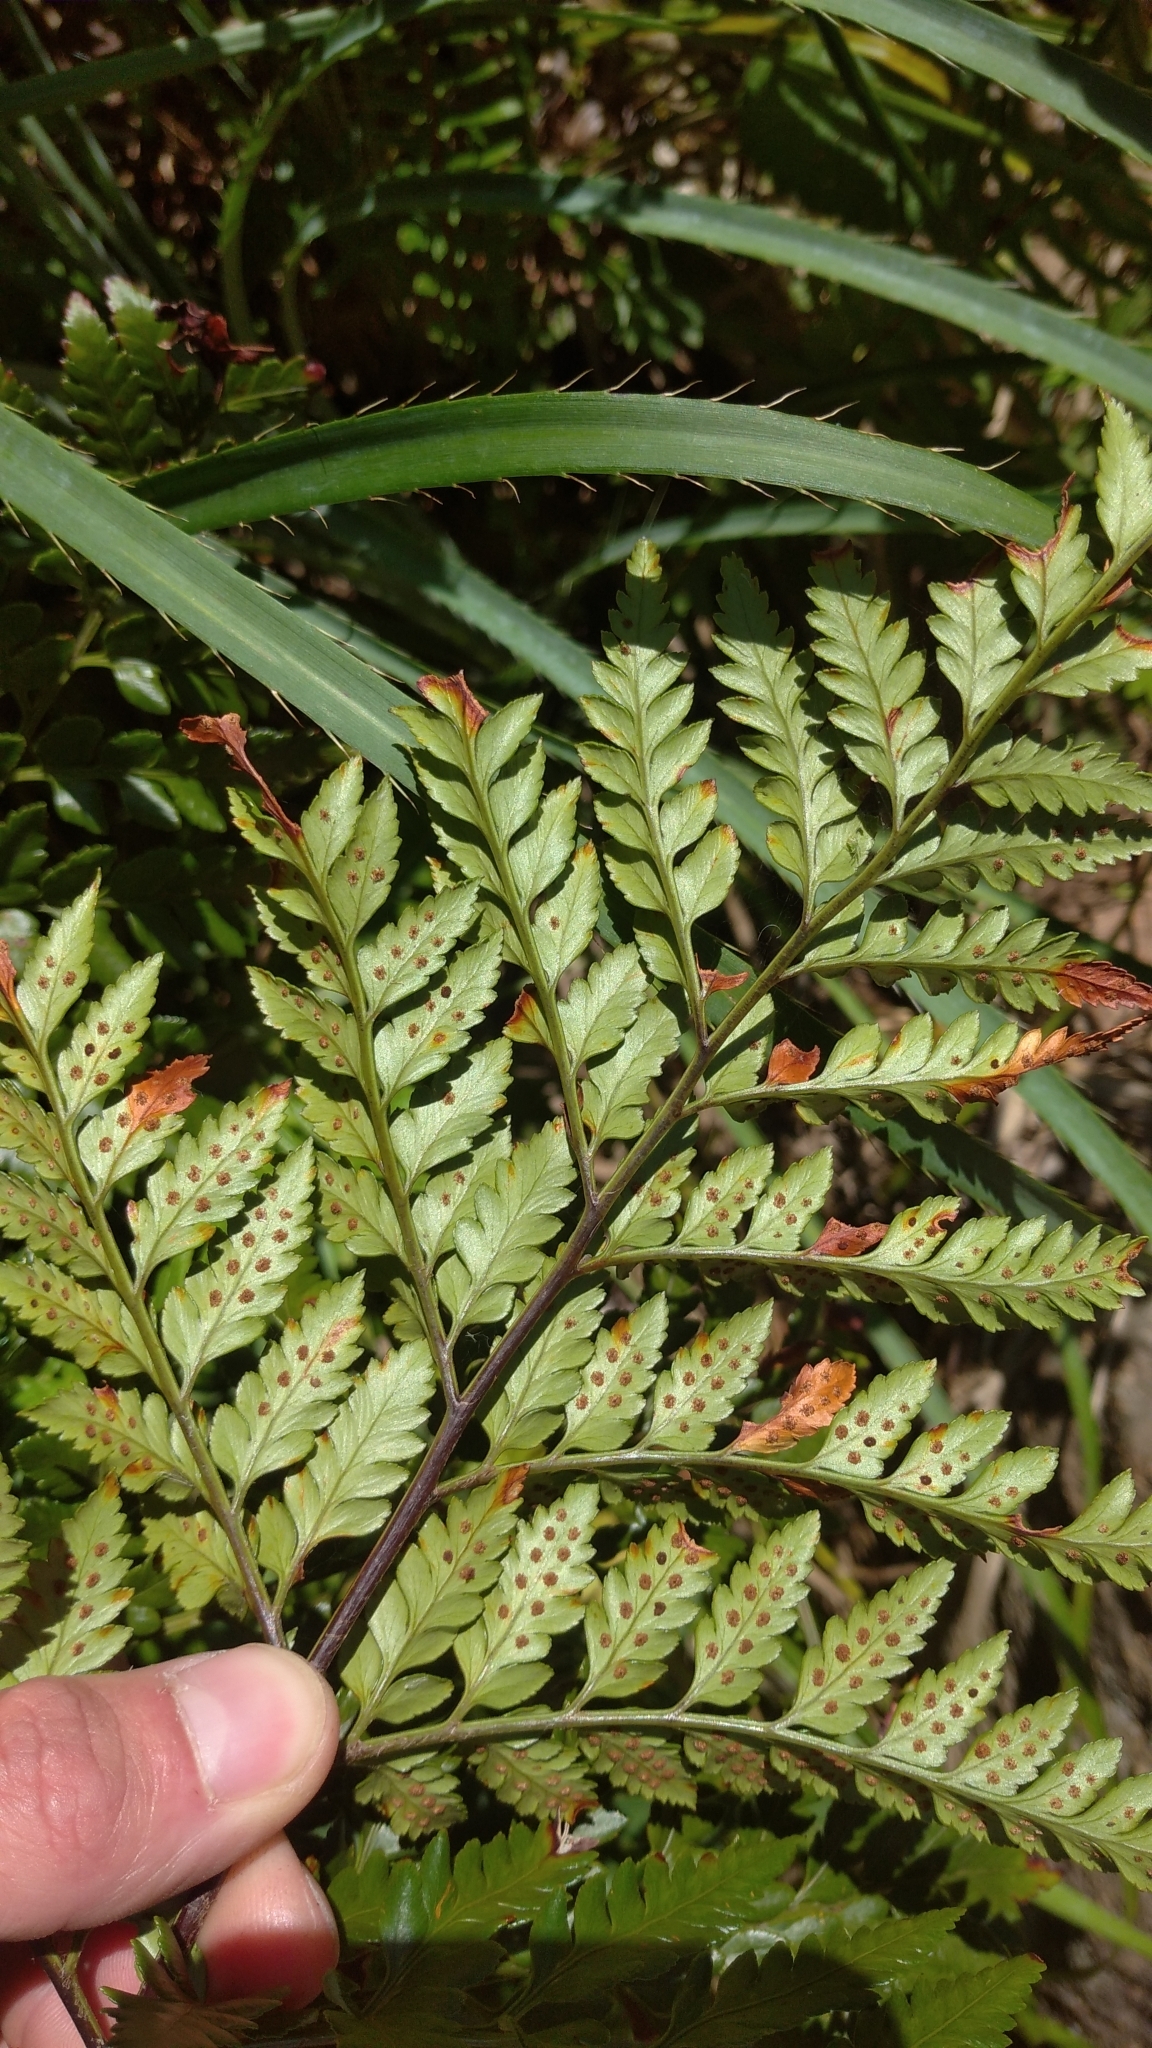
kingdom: Plantae
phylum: Tracheophyta
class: Polypodiopsida
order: Polypodiales
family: Dryopteridaceae
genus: Rumohra
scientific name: Rumohra adiantiformis
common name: Leather fern
